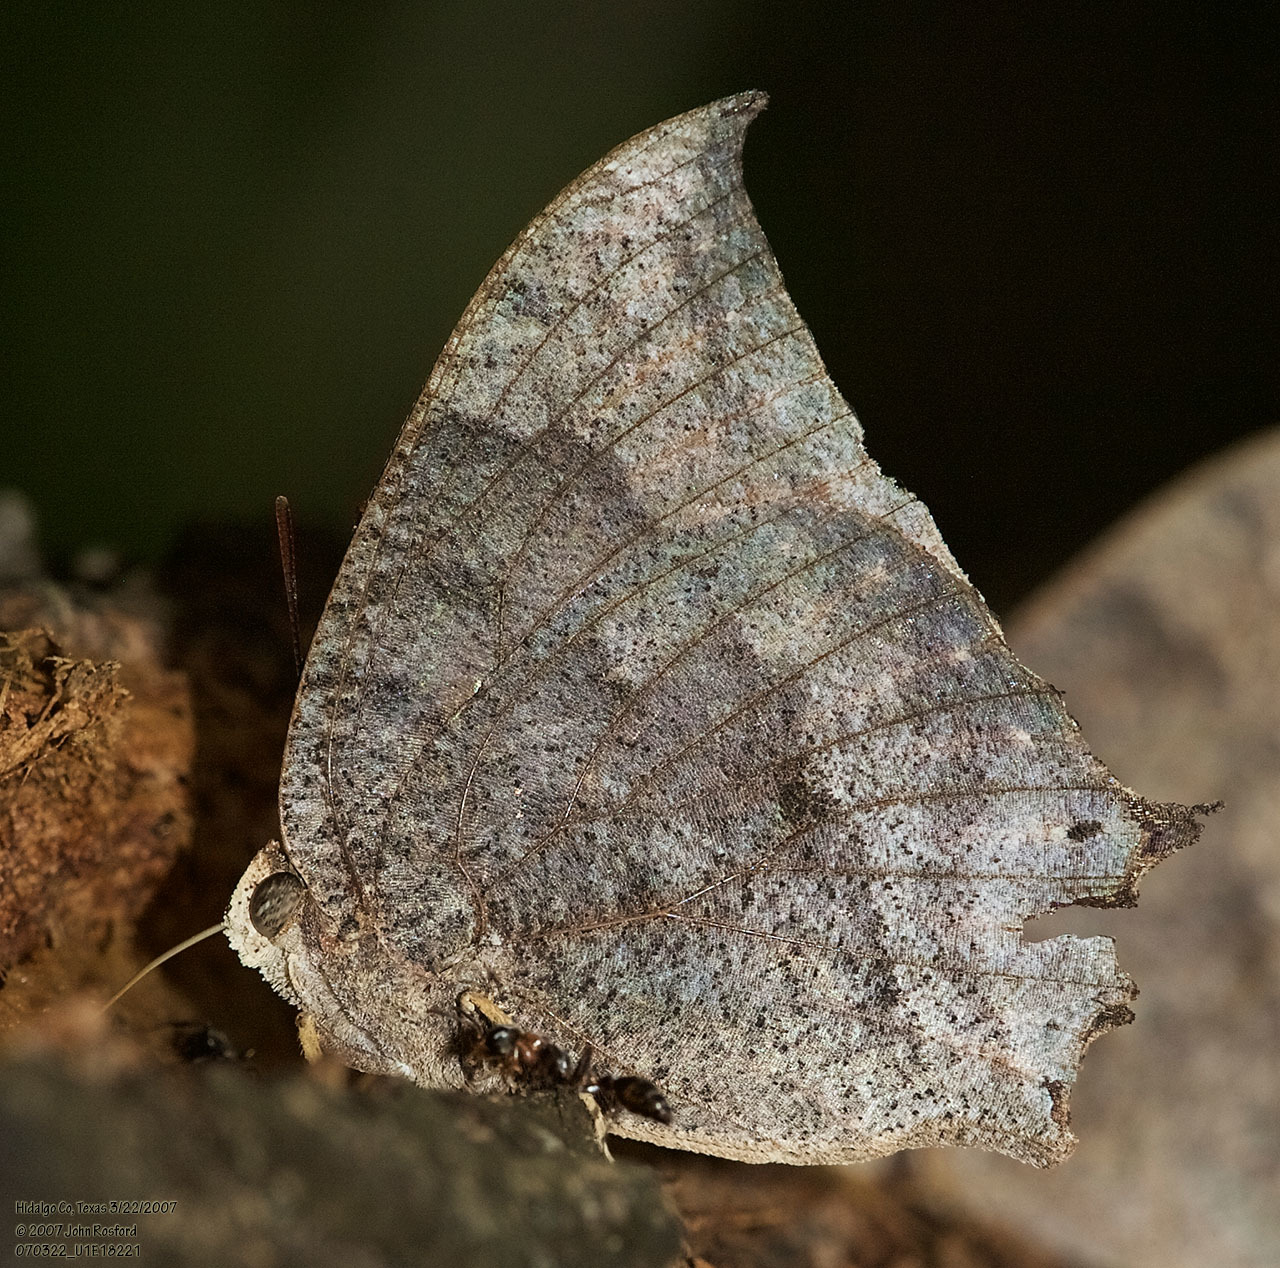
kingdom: Animalia
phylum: Arthropoda
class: Insecta
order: Lepidoptera
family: Nymphalidae
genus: Anaea
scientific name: Anaea aidea
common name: Tropical leafwing
